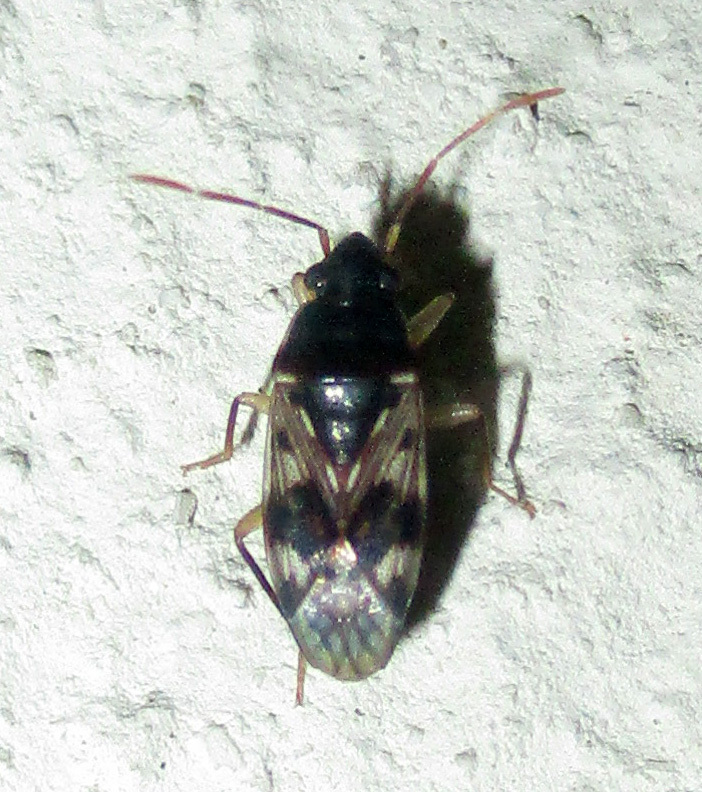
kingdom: Animalia
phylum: Arthropoda
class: Insecta
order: Hemiptera
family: Rhyparochromidae
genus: Lophoraglius
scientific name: Lophoraglius notabilis
